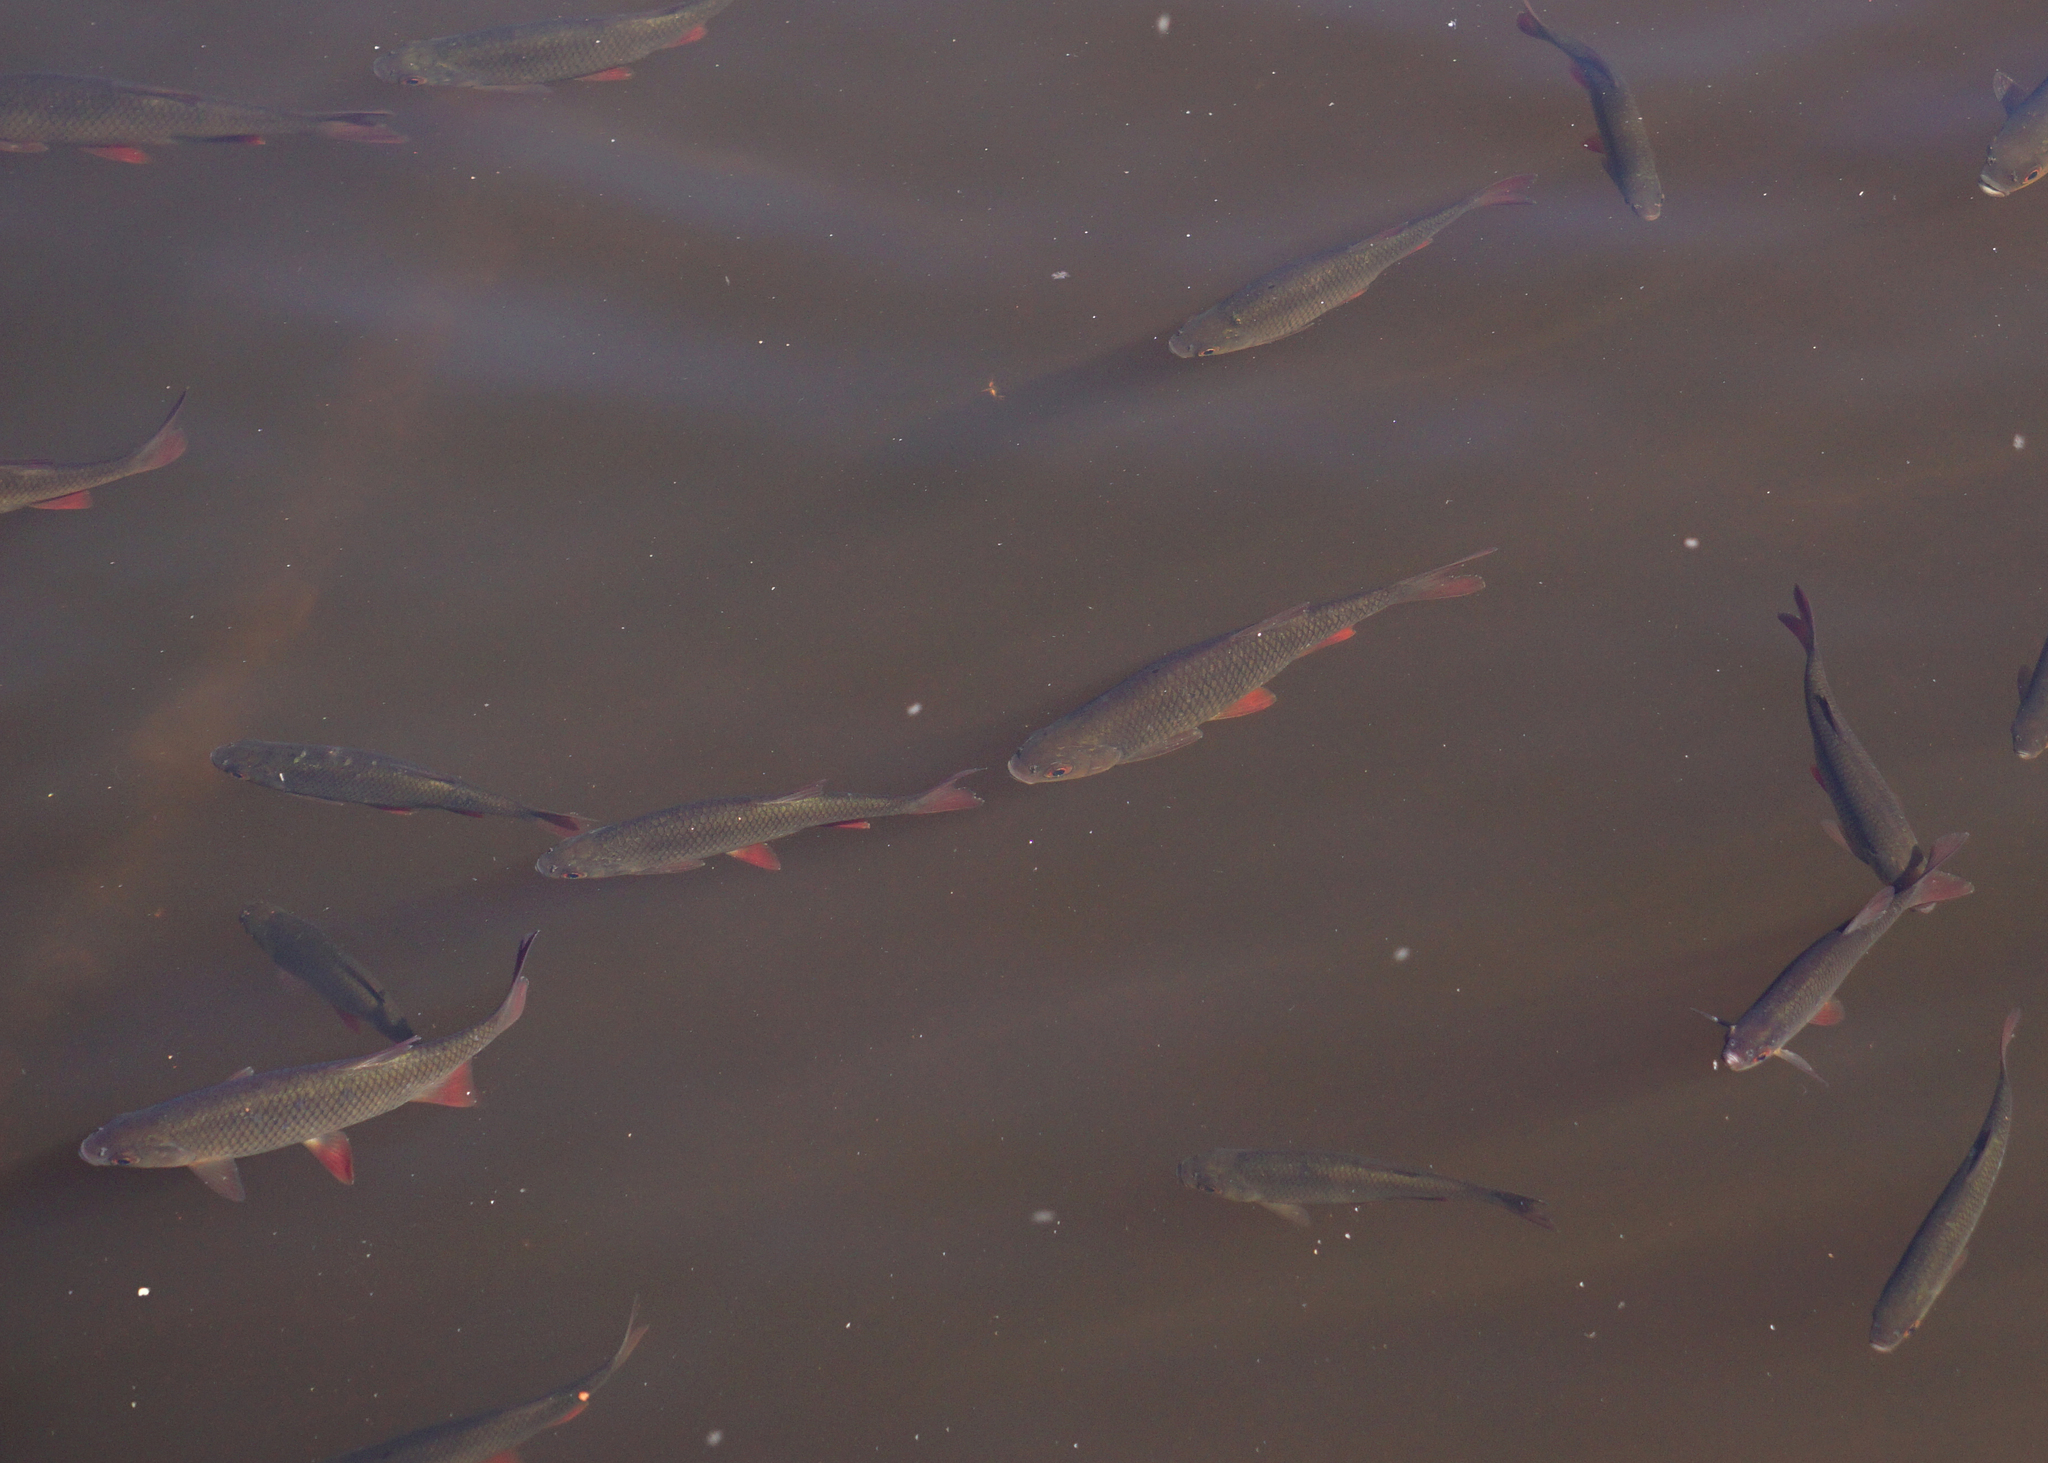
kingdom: Animalia
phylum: Chordata
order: Cypriniformes
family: Cyprinidae
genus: Rutilus
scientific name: Rutilus rutilus
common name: Roach
